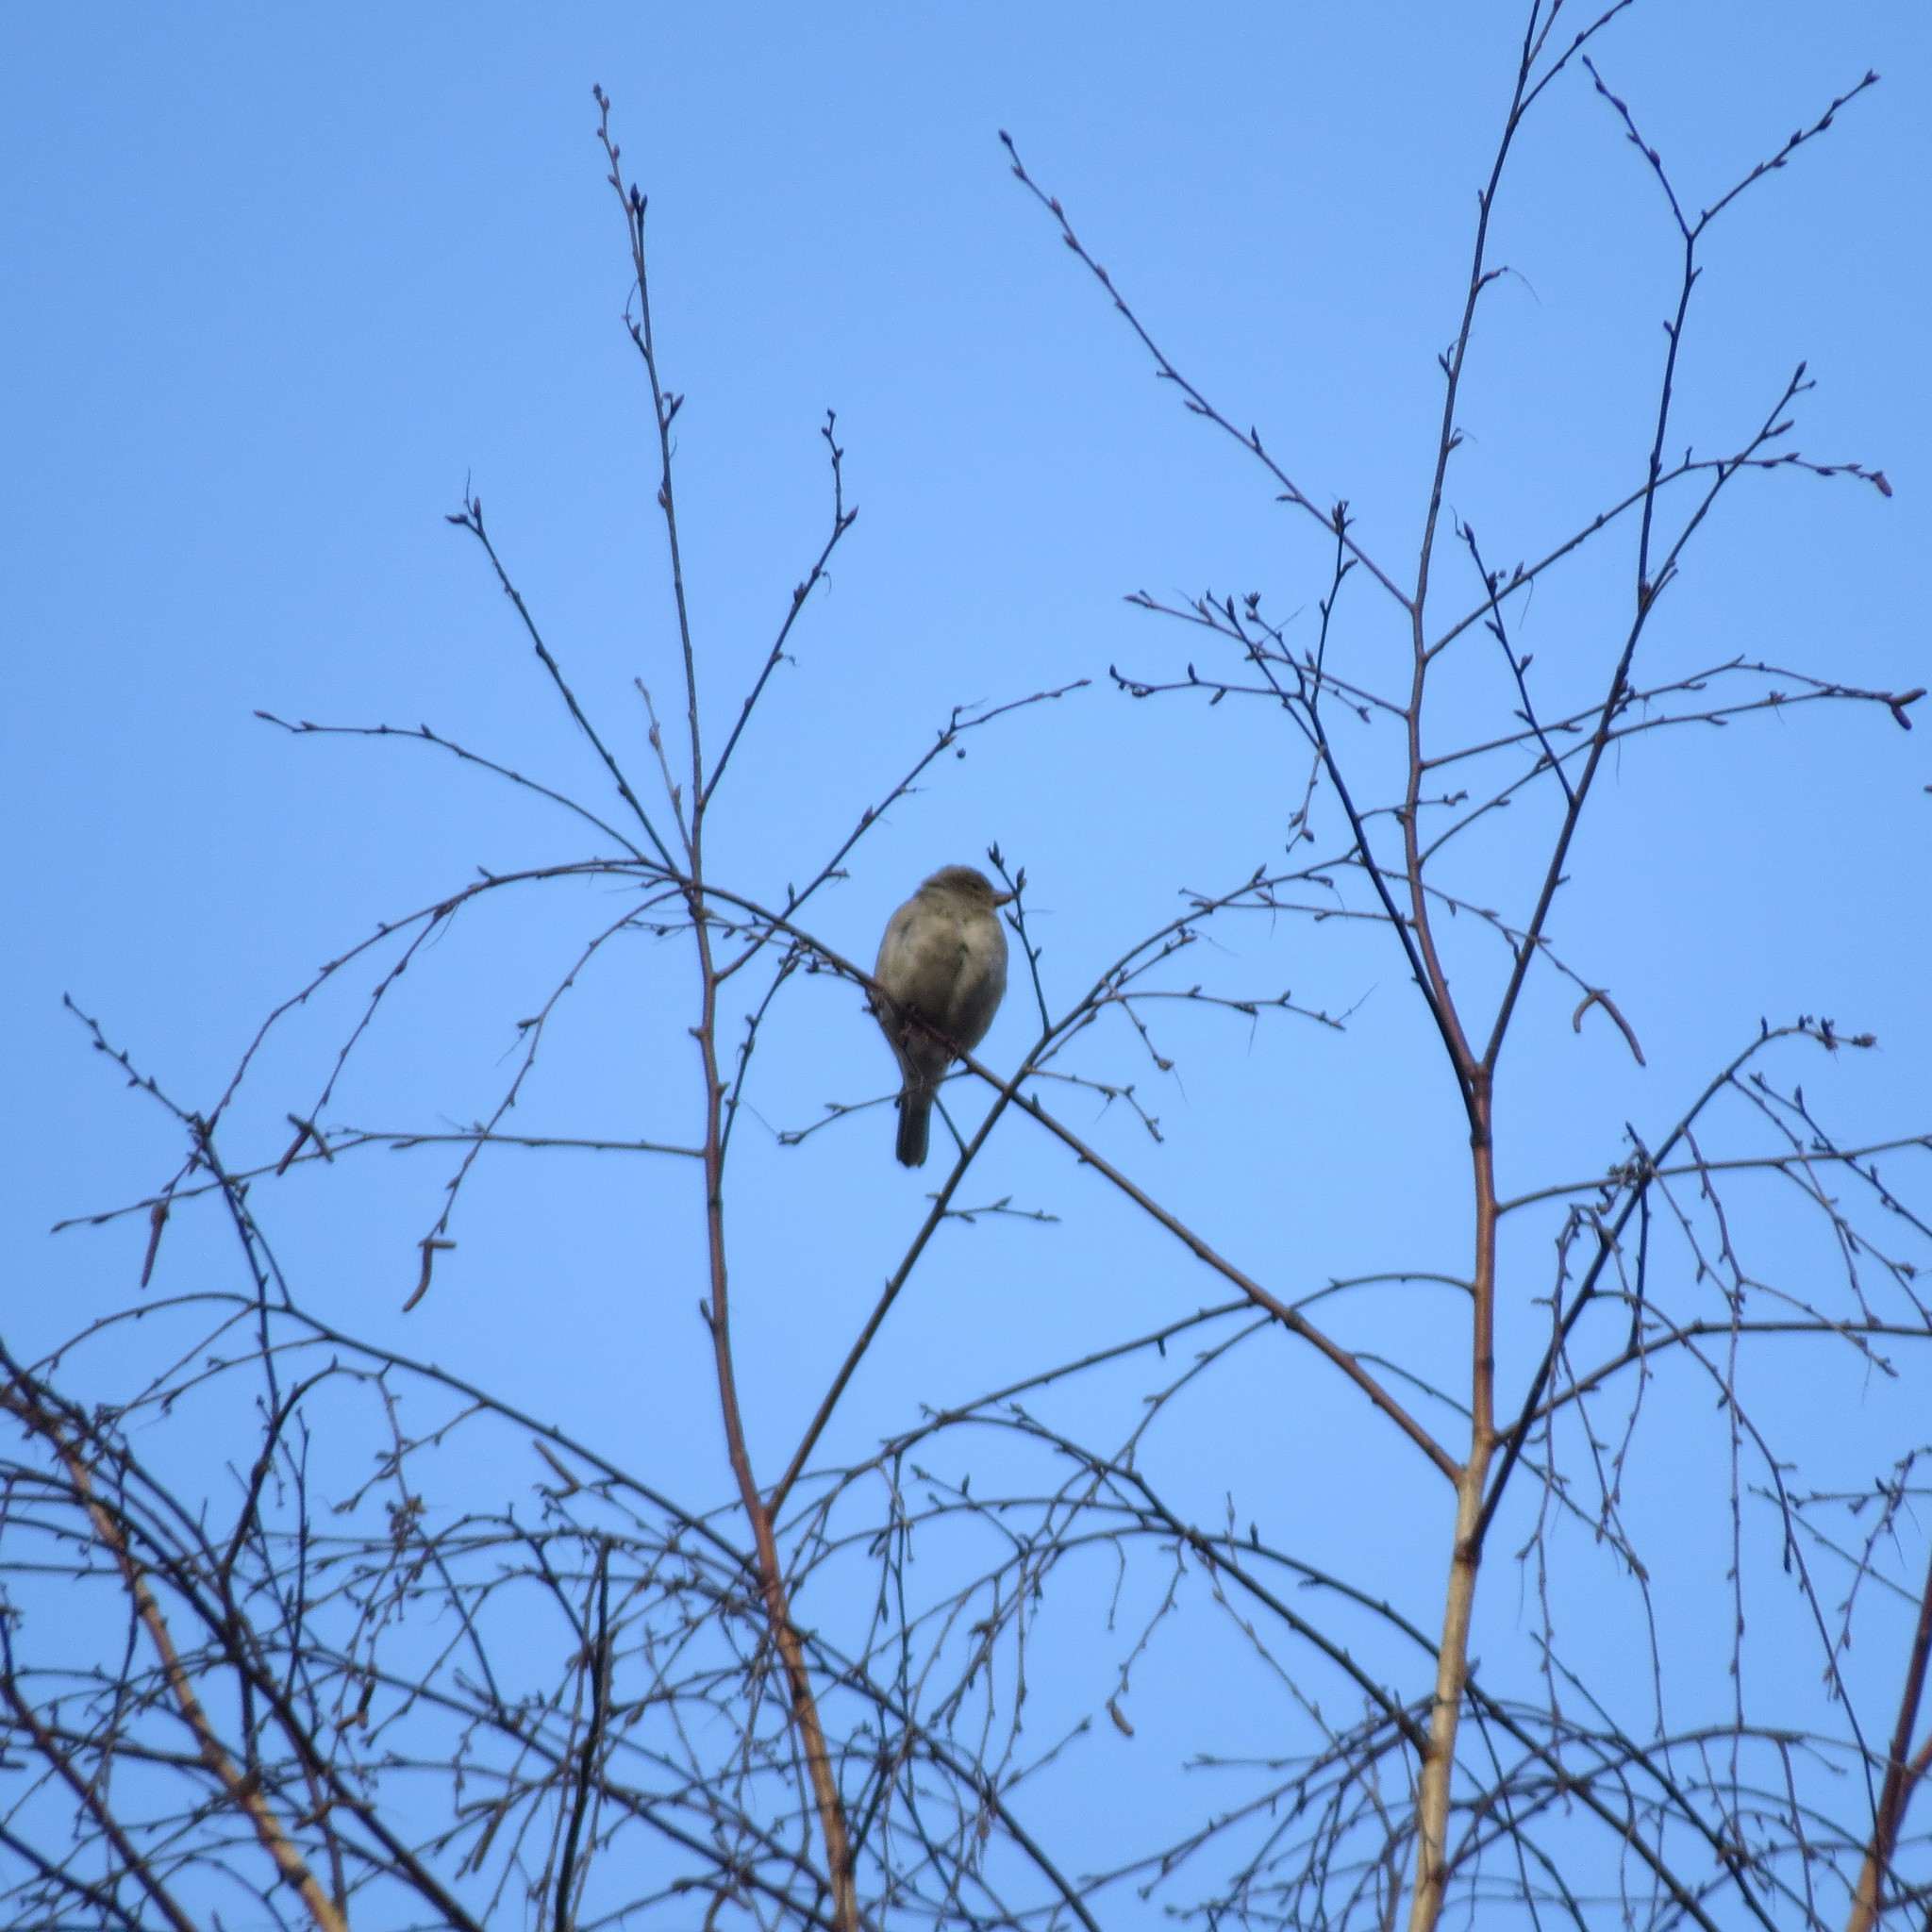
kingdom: Animalia
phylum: Chordata
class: Aves
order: Passeriformes
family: Passeridae
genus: Passer
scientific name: Passer domesticus
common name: House sparrow
